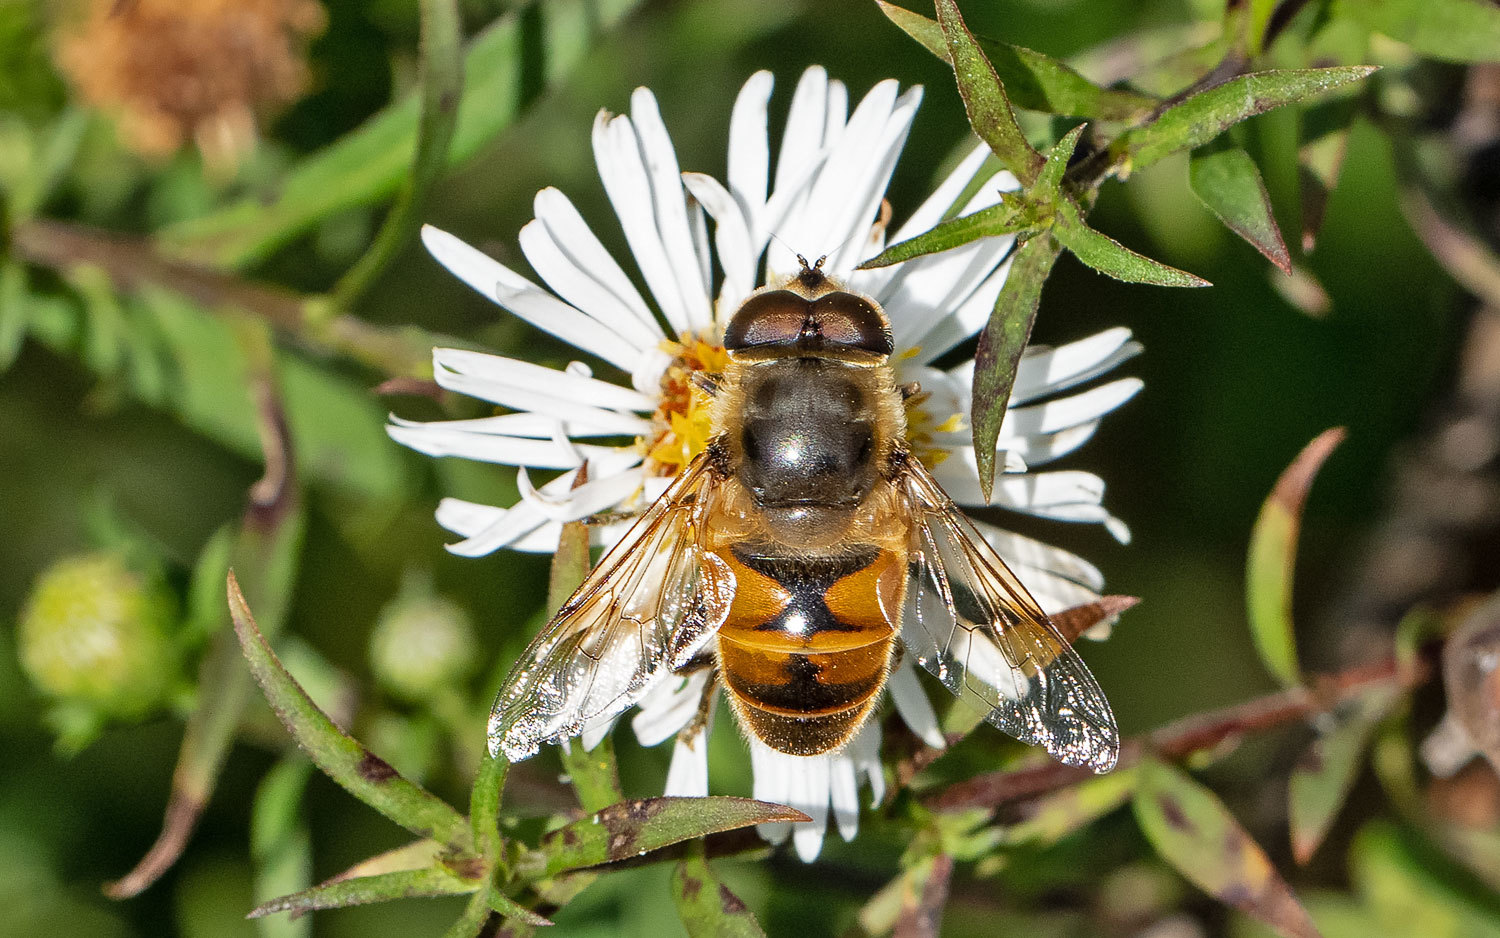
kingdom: Animalia
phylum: Arthropoda
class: Insecta
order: Diptera
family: Syrphidae
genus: Eristalis
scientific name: Eristalis tenax
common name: Drone fly
